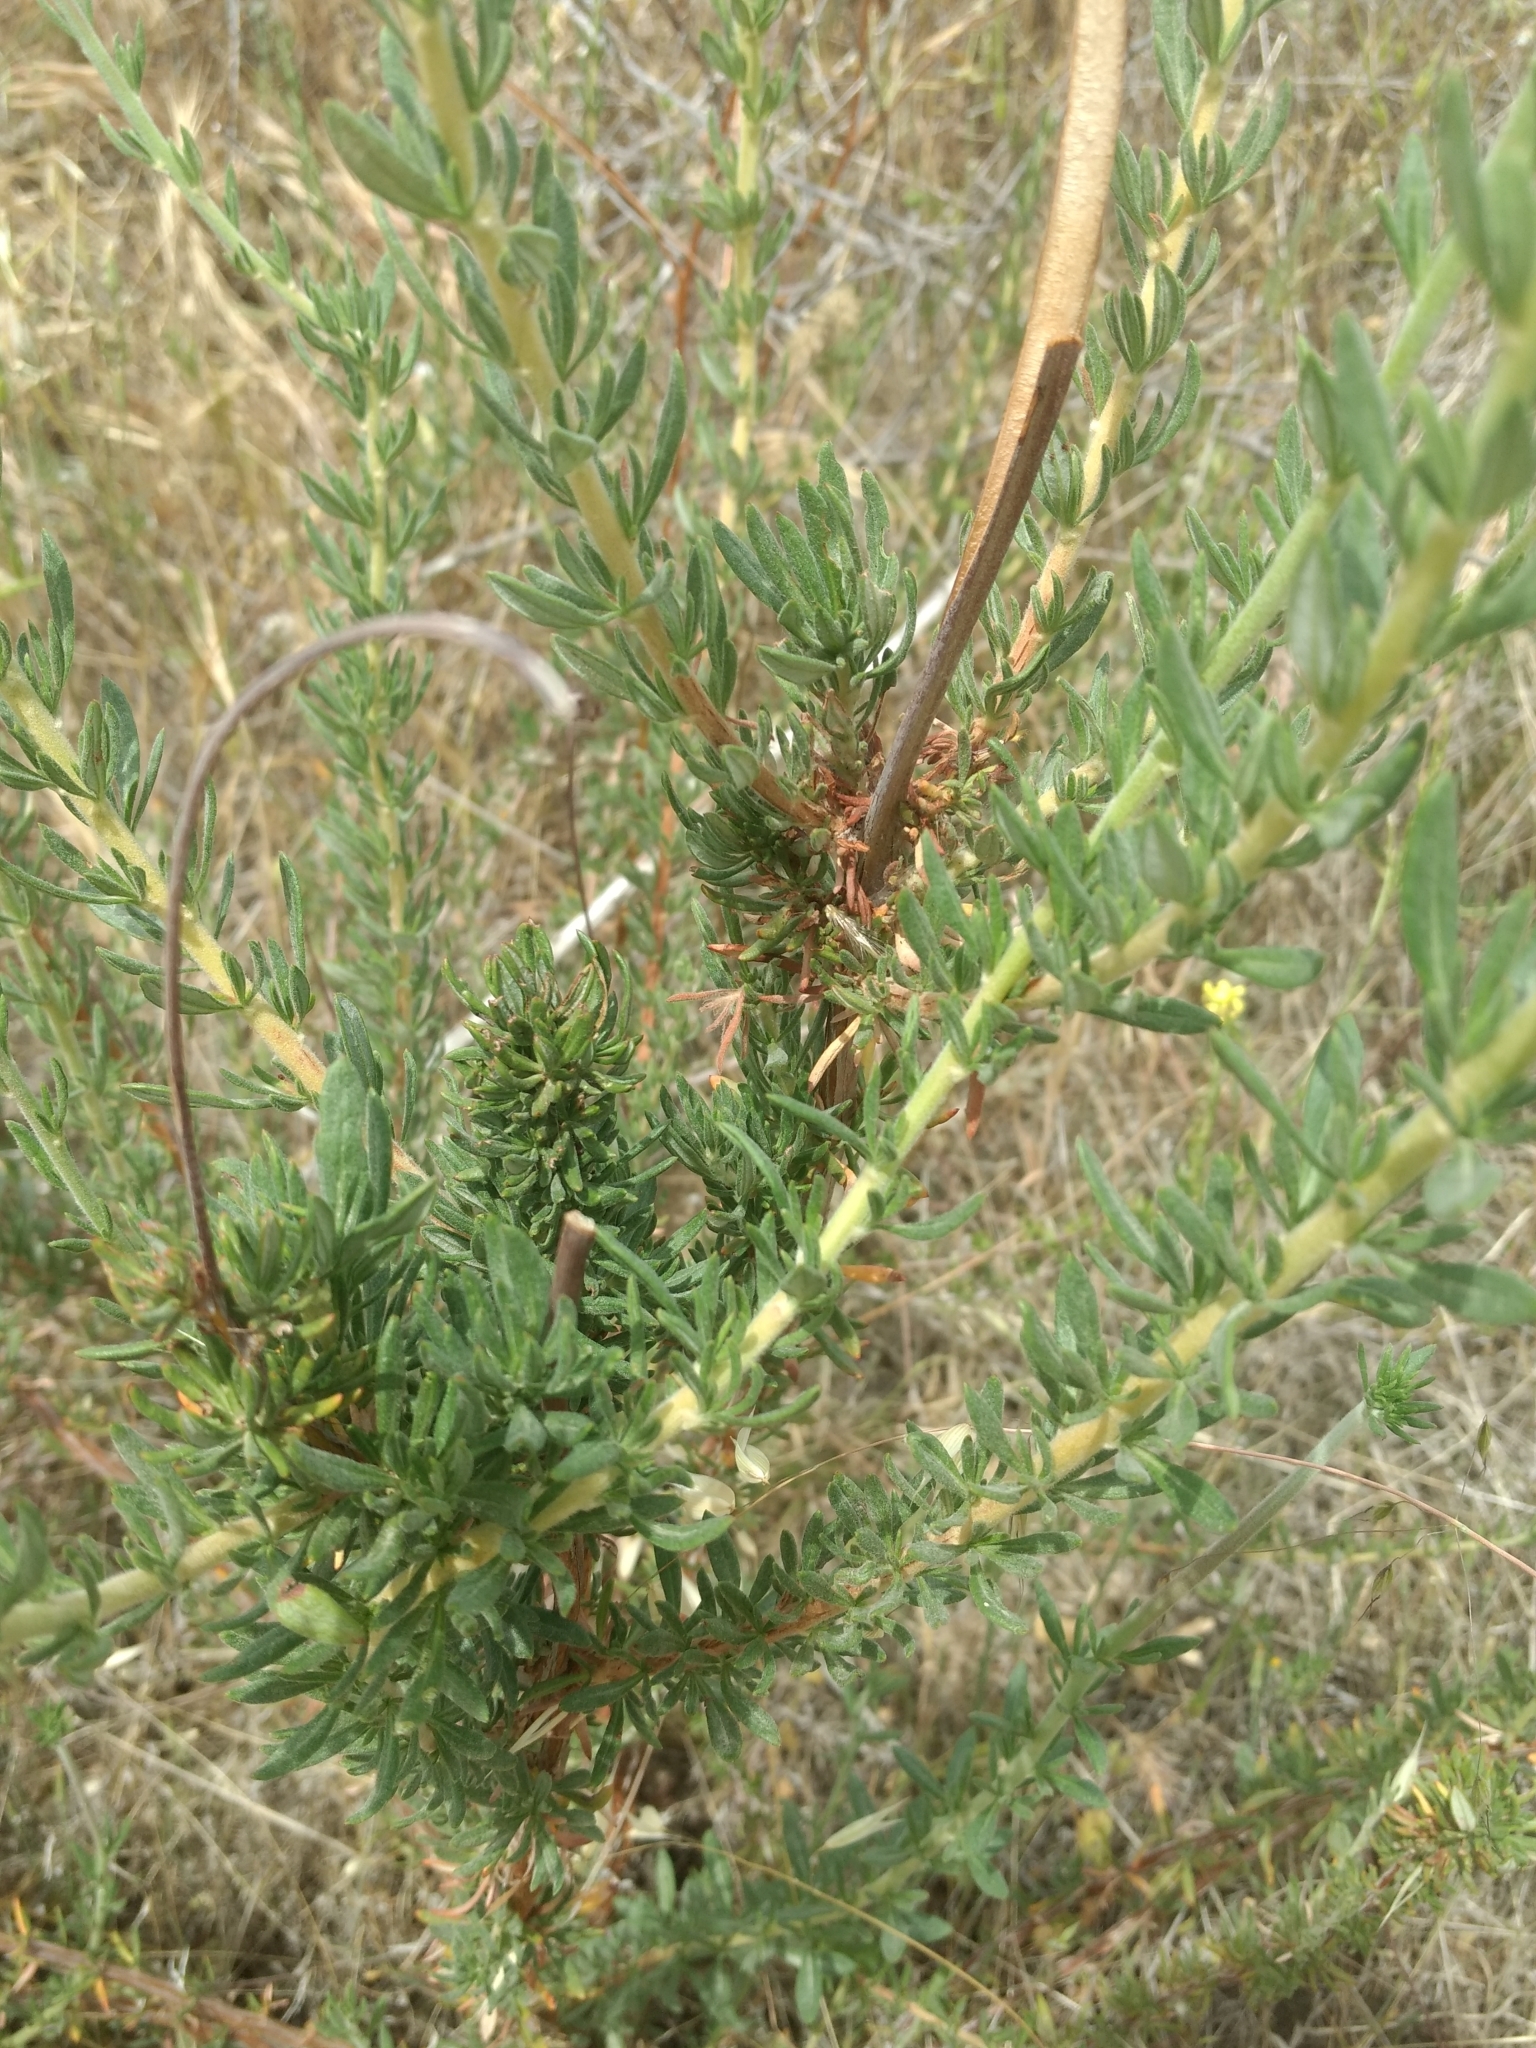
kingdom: Plantae
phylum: Tracheophyta
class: Magnoliopsida
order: Caryophyllales
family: Polygonaceae
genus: Eriogonum
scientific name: Eriogonum fasciculatum
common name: California wild buckwheat
